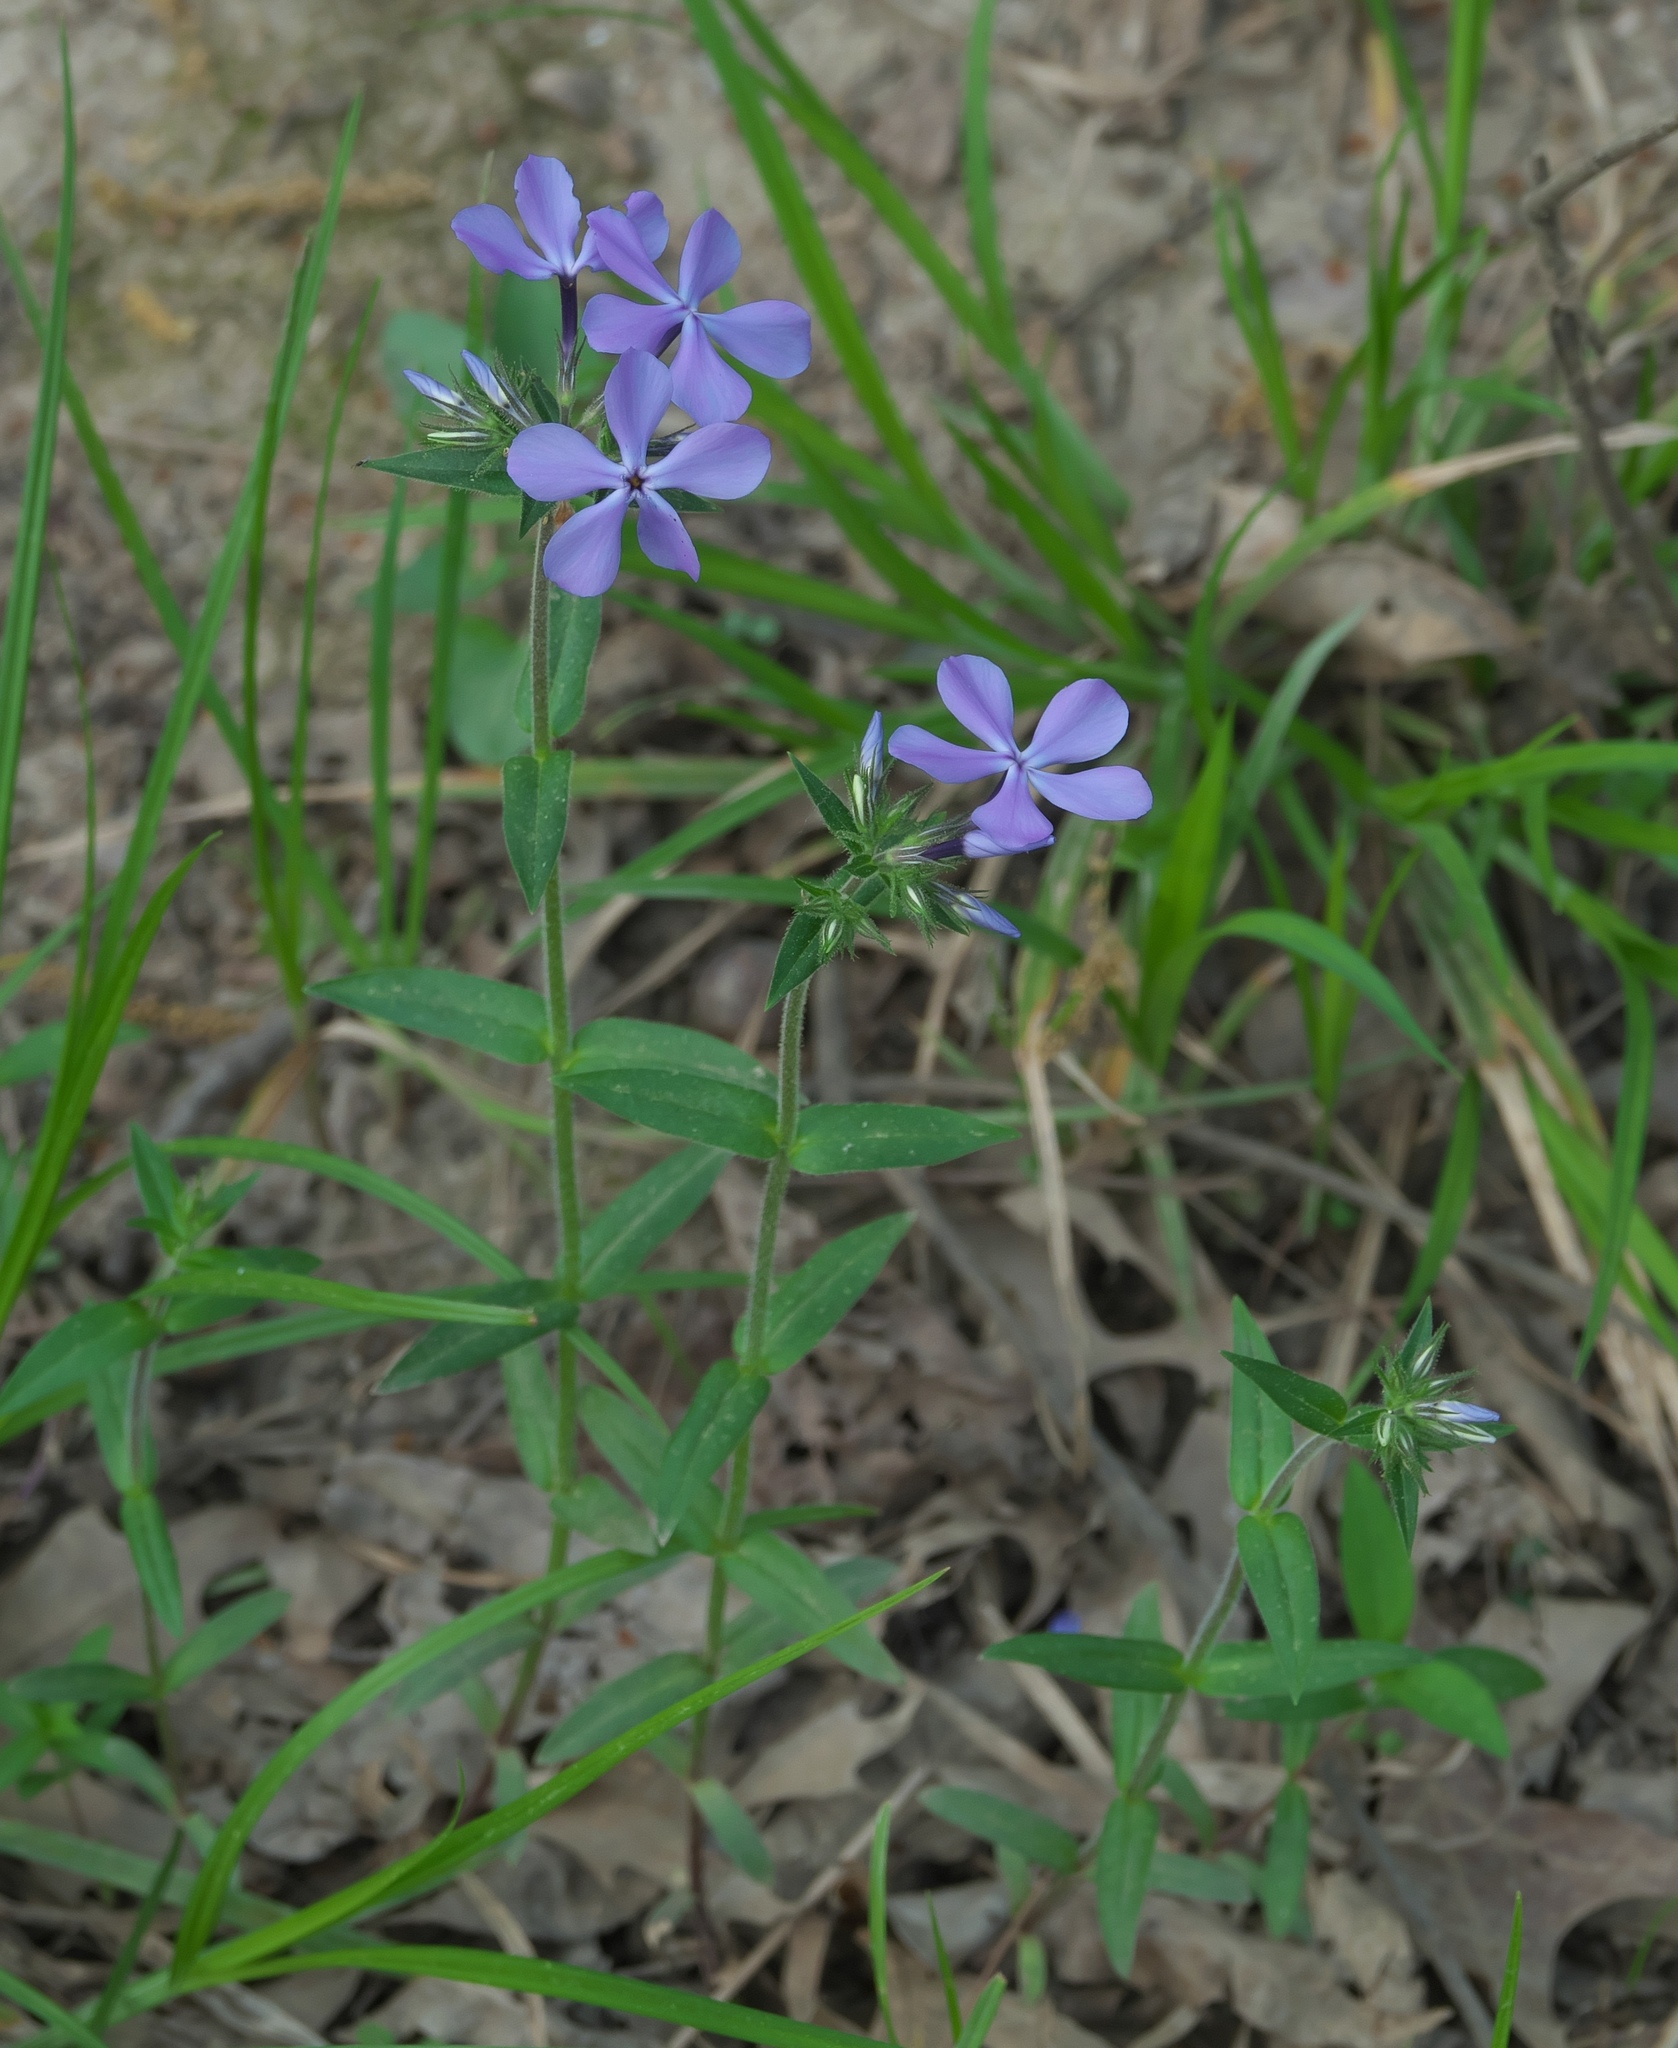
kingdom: Plantae
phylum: Tracheophyta
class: Magnoliopsida
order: Ericales
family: Polemoniaceae
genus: Phlox
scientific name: Phlox divaricata
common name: Blue phlox
